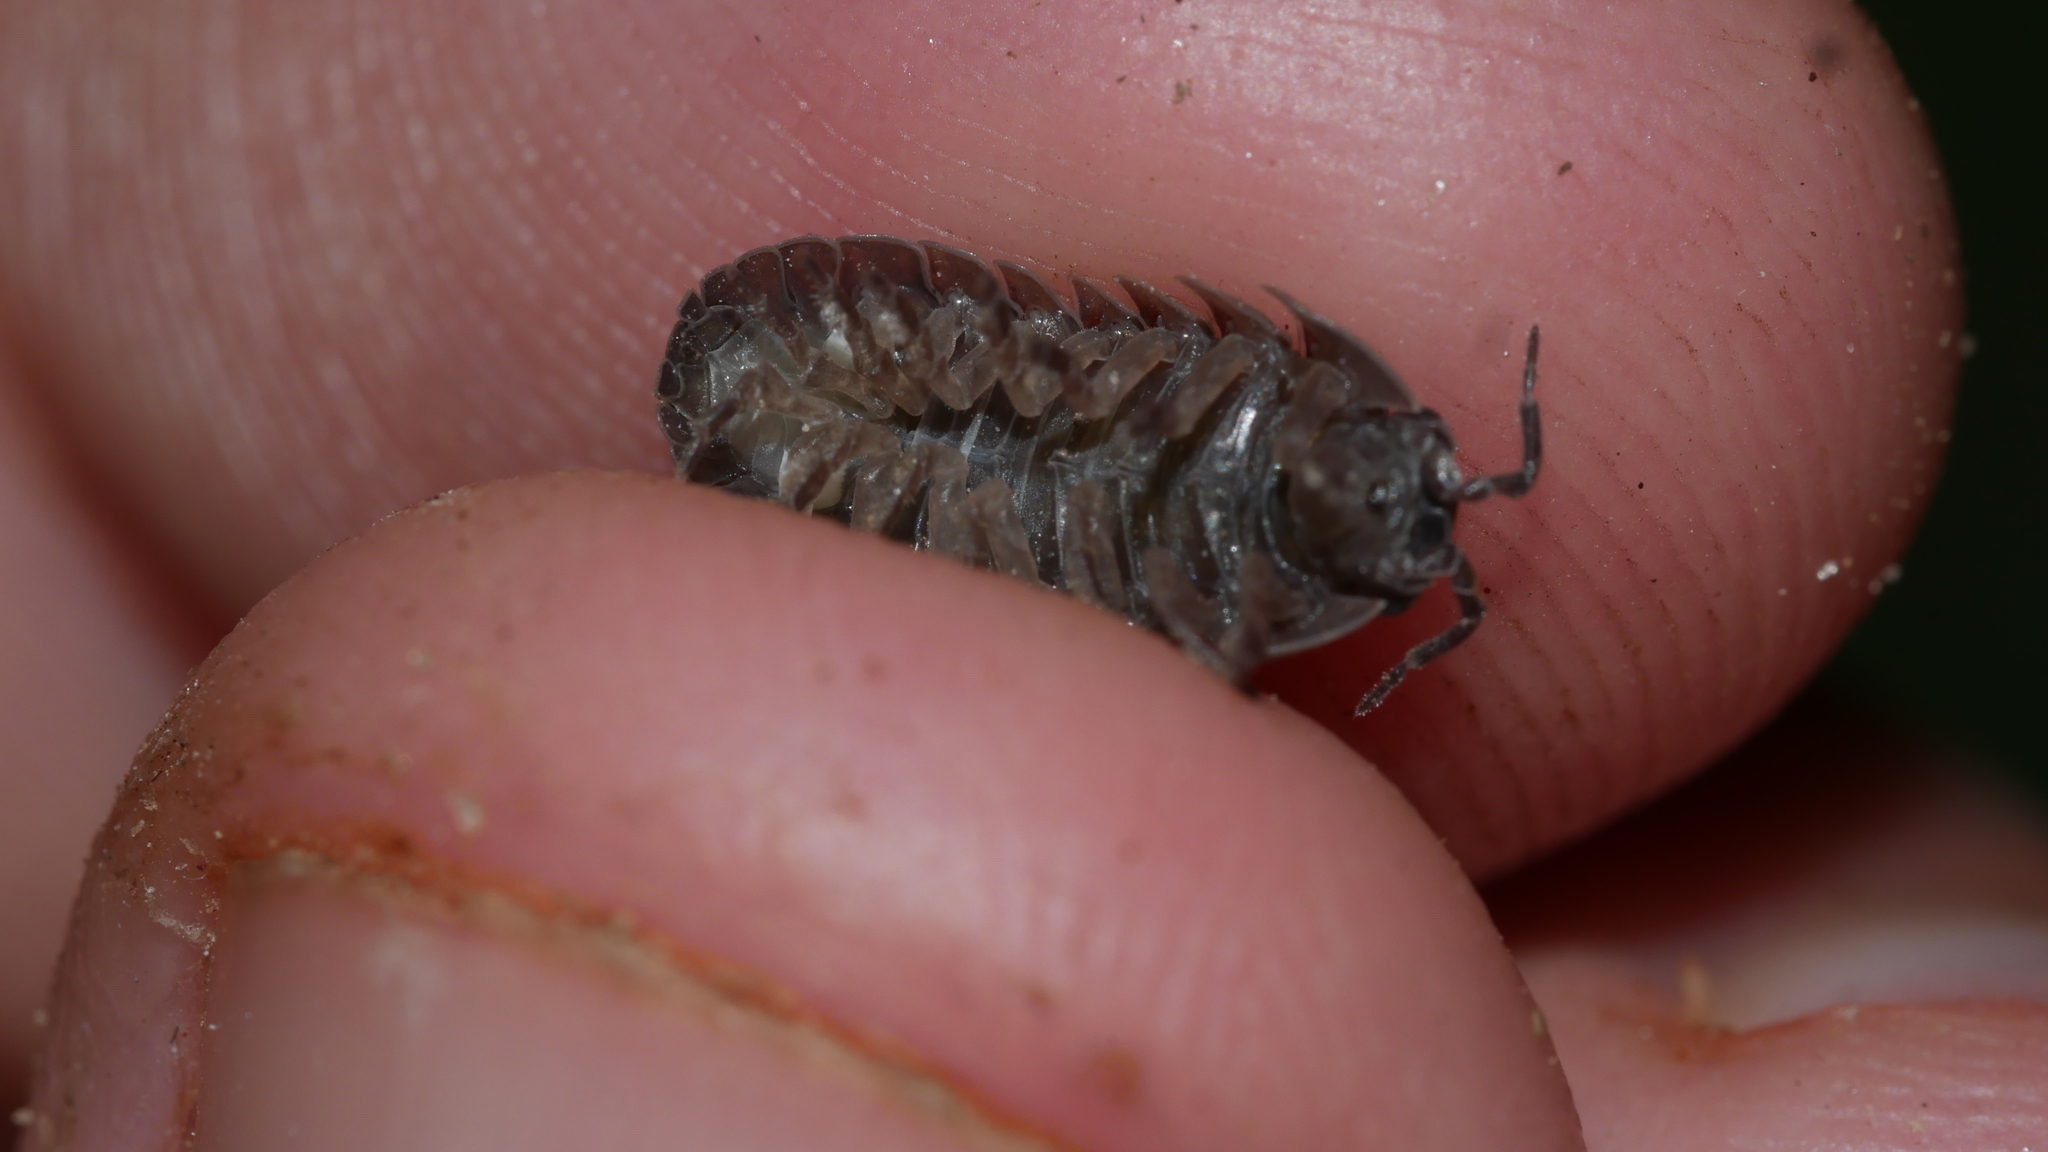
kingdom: Animalia
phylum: Arthropoda
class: Malacostraca
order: Isopoda
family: Armadillidiidae
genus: Armadillidium
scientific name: Armadillidium vulgare
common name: Common pill woodlouse
